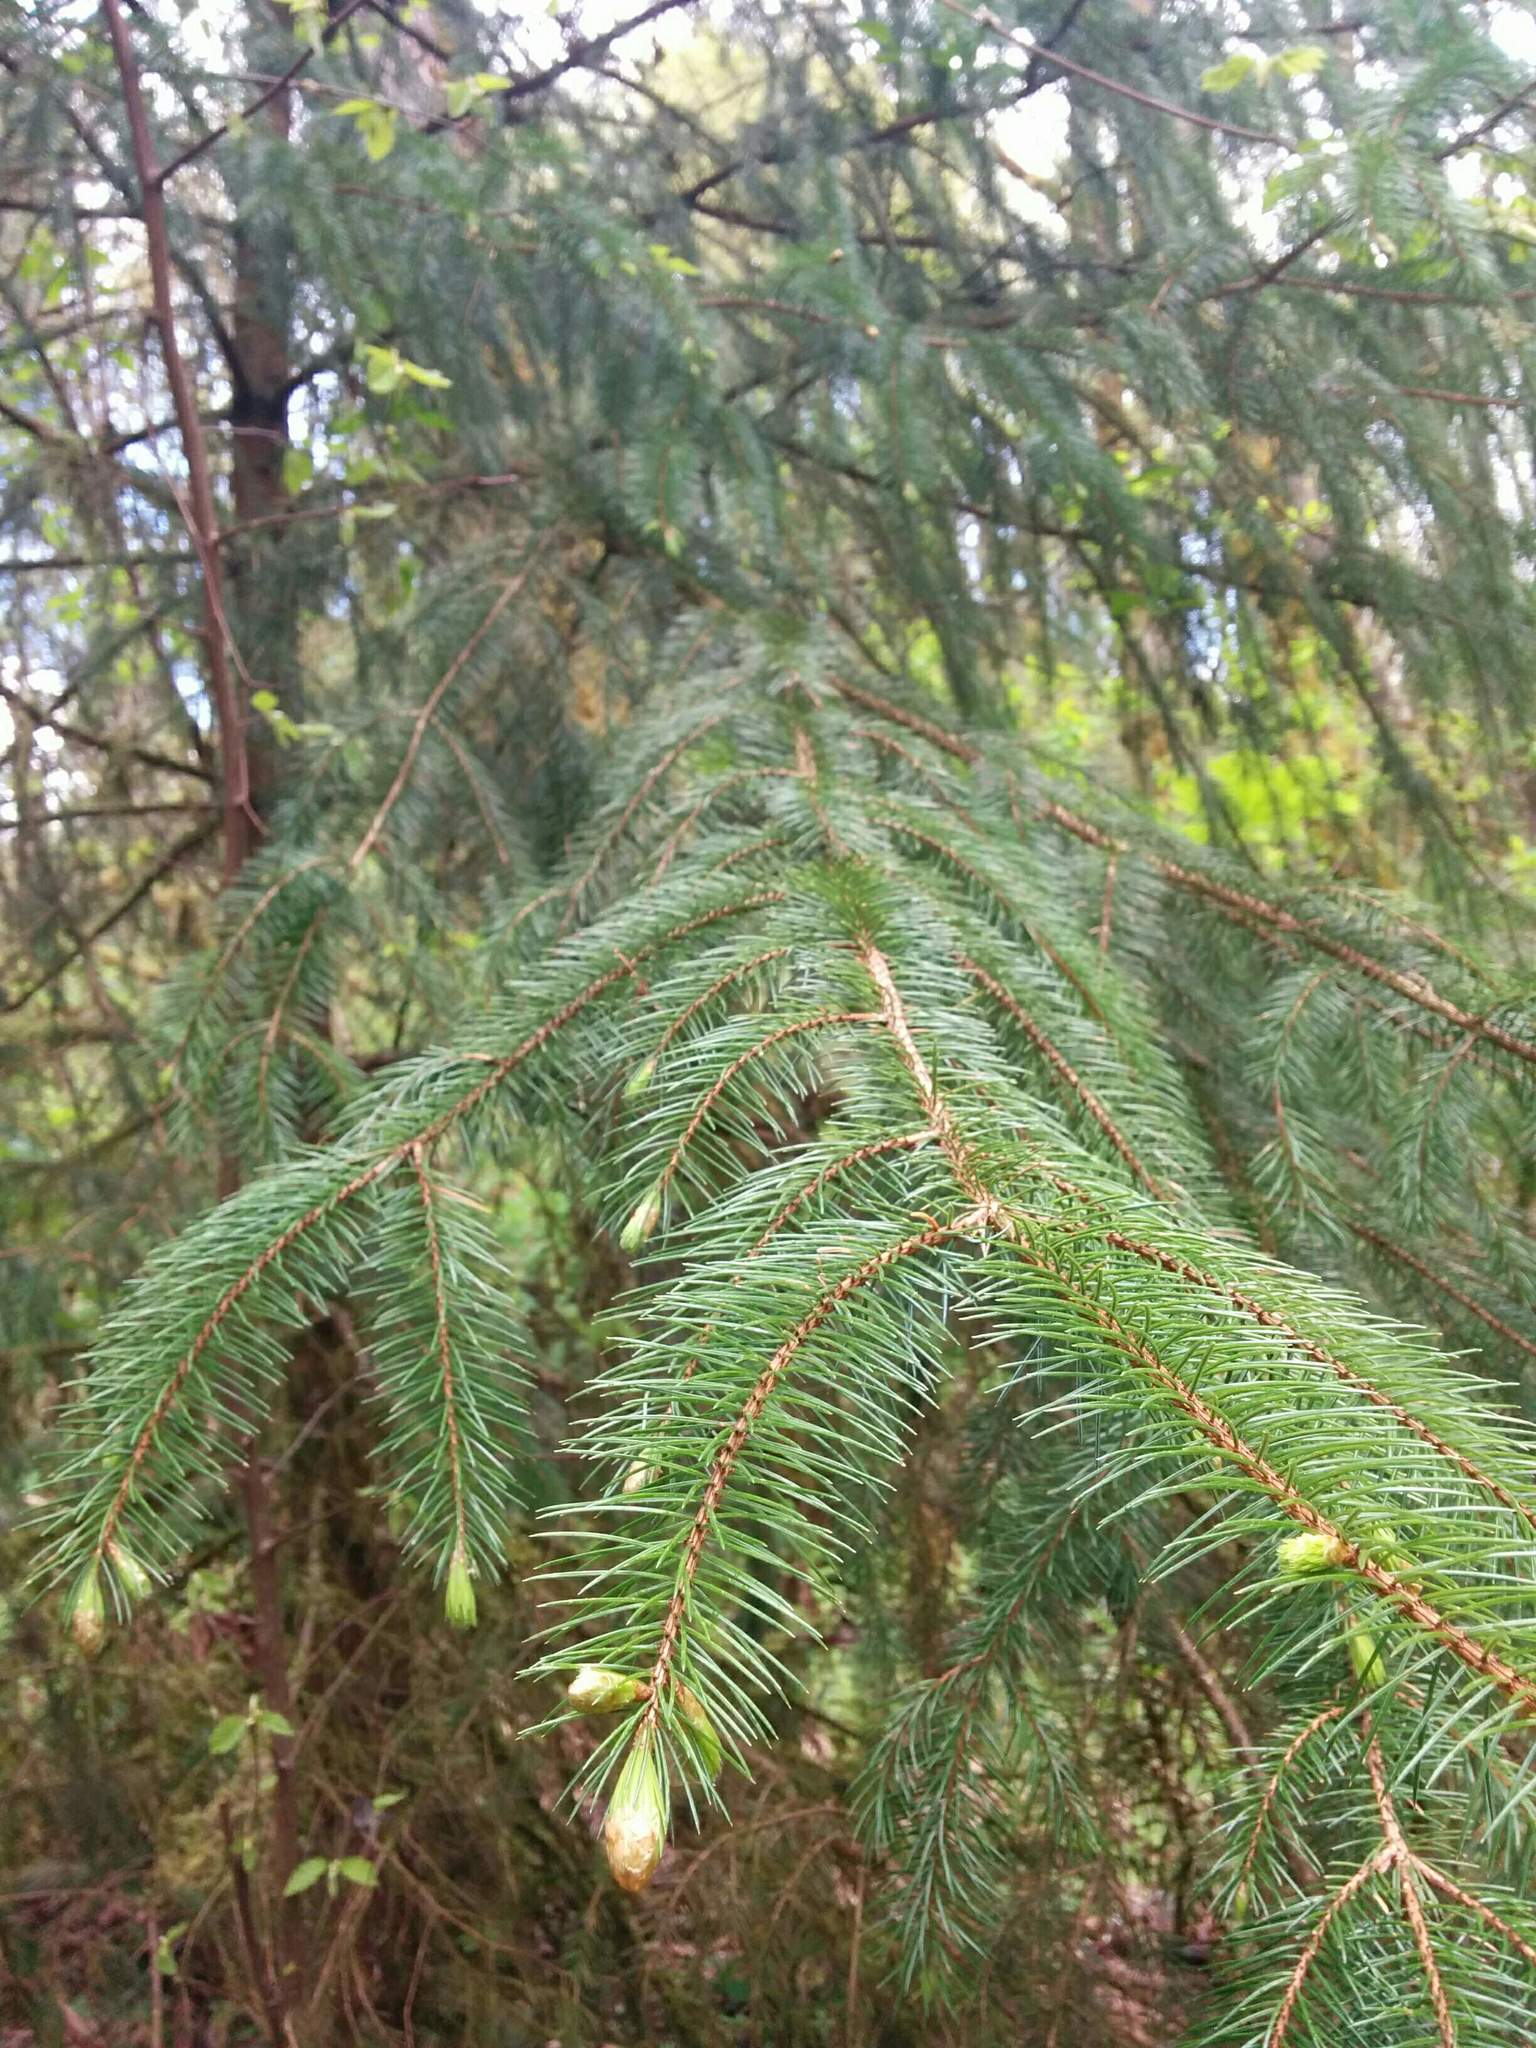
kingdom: Plantae
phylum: Tracheophyta
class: Pinopsida
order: Pinales
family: Pinaceae
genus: Picea
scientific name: Picea sitchensis
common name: Sitka spruce
